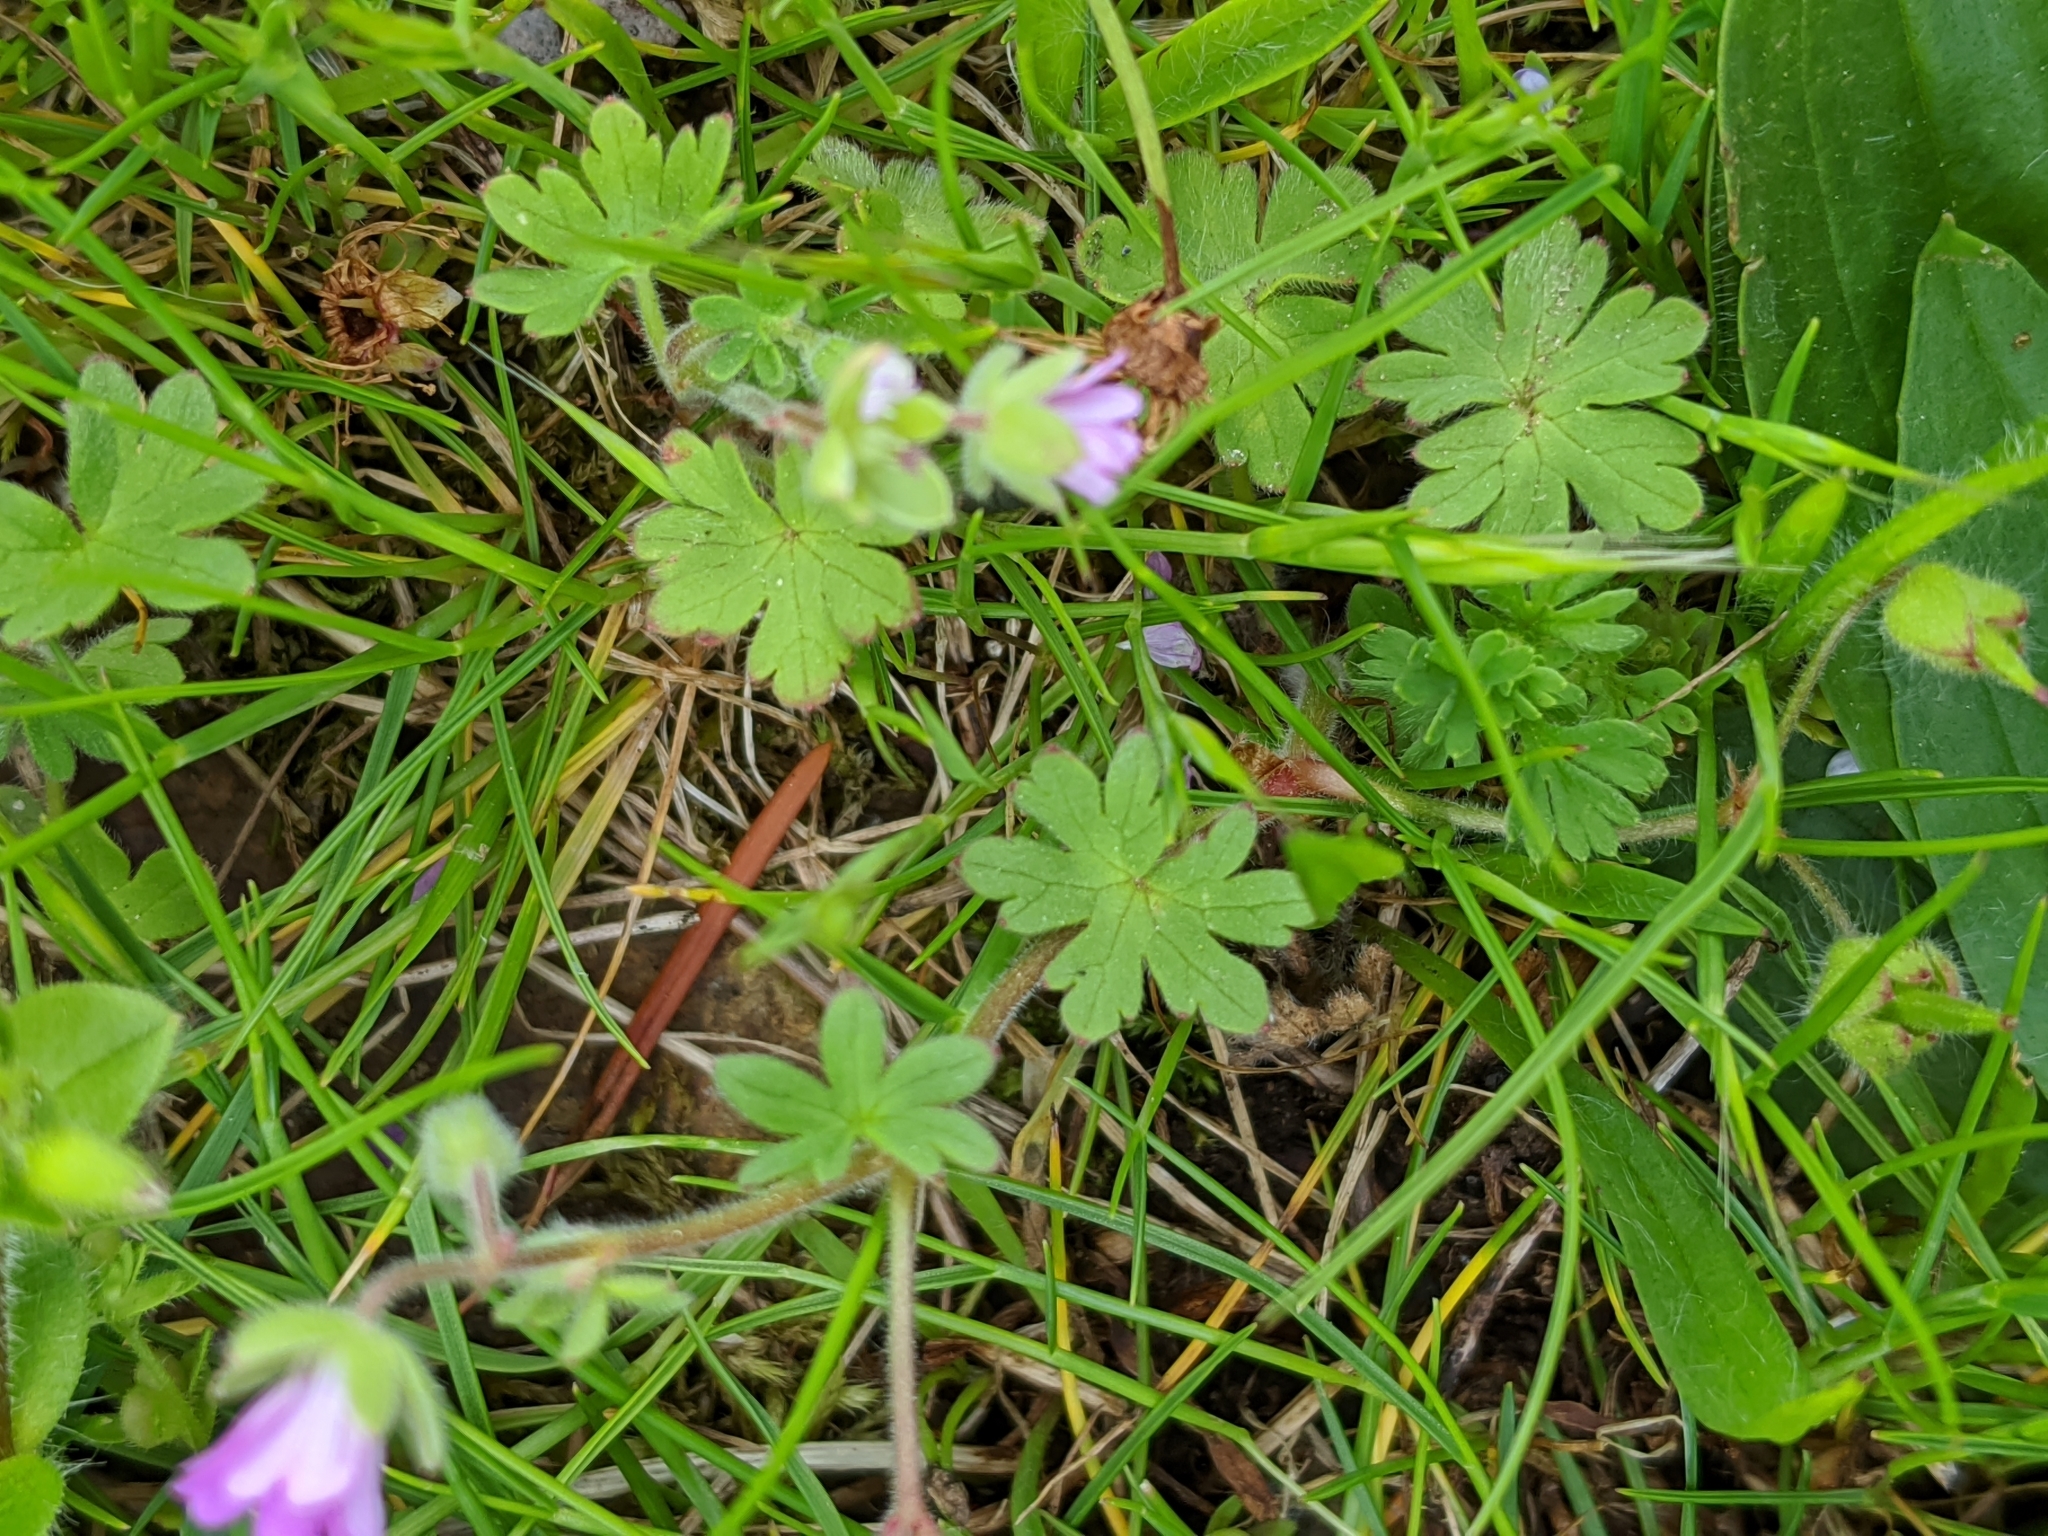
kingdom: Plantae
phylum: Tracheophyta
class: Magnoliopsida
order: Geraniales
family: Geraniaceae
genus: Geranium
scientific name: Geranium molle
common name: Dove's-foot crane's-bill
